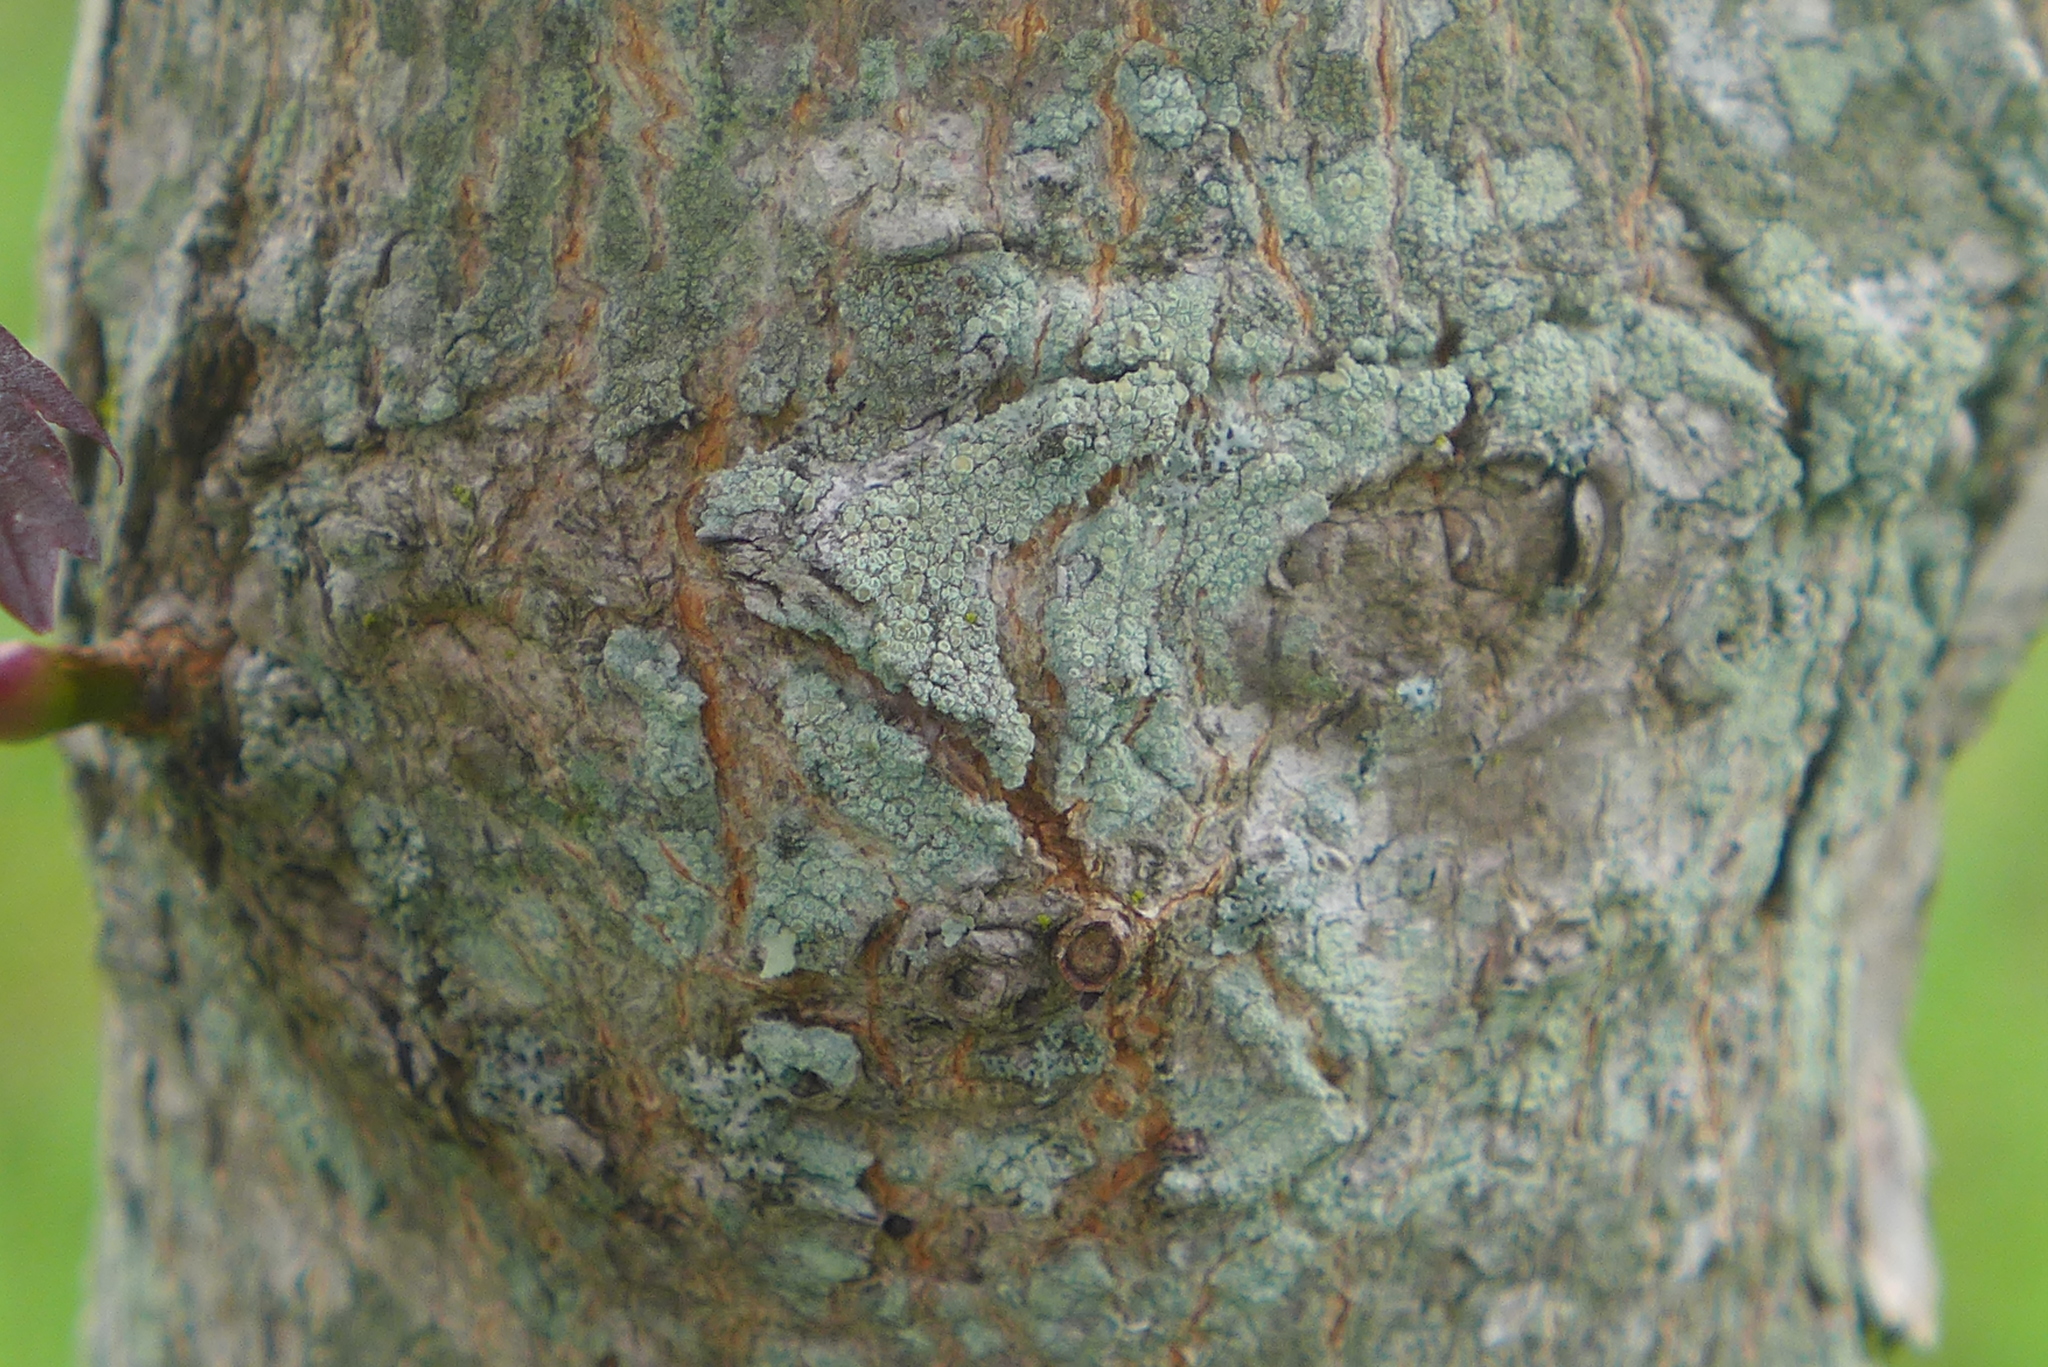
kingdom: Fungi
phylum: Ascomycota
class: Lecanoromycetes
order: Lecanorales
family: Lecanoraceae
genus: Lecanora
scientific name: Lecanora strobilina
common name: Mealy rim-lichen
